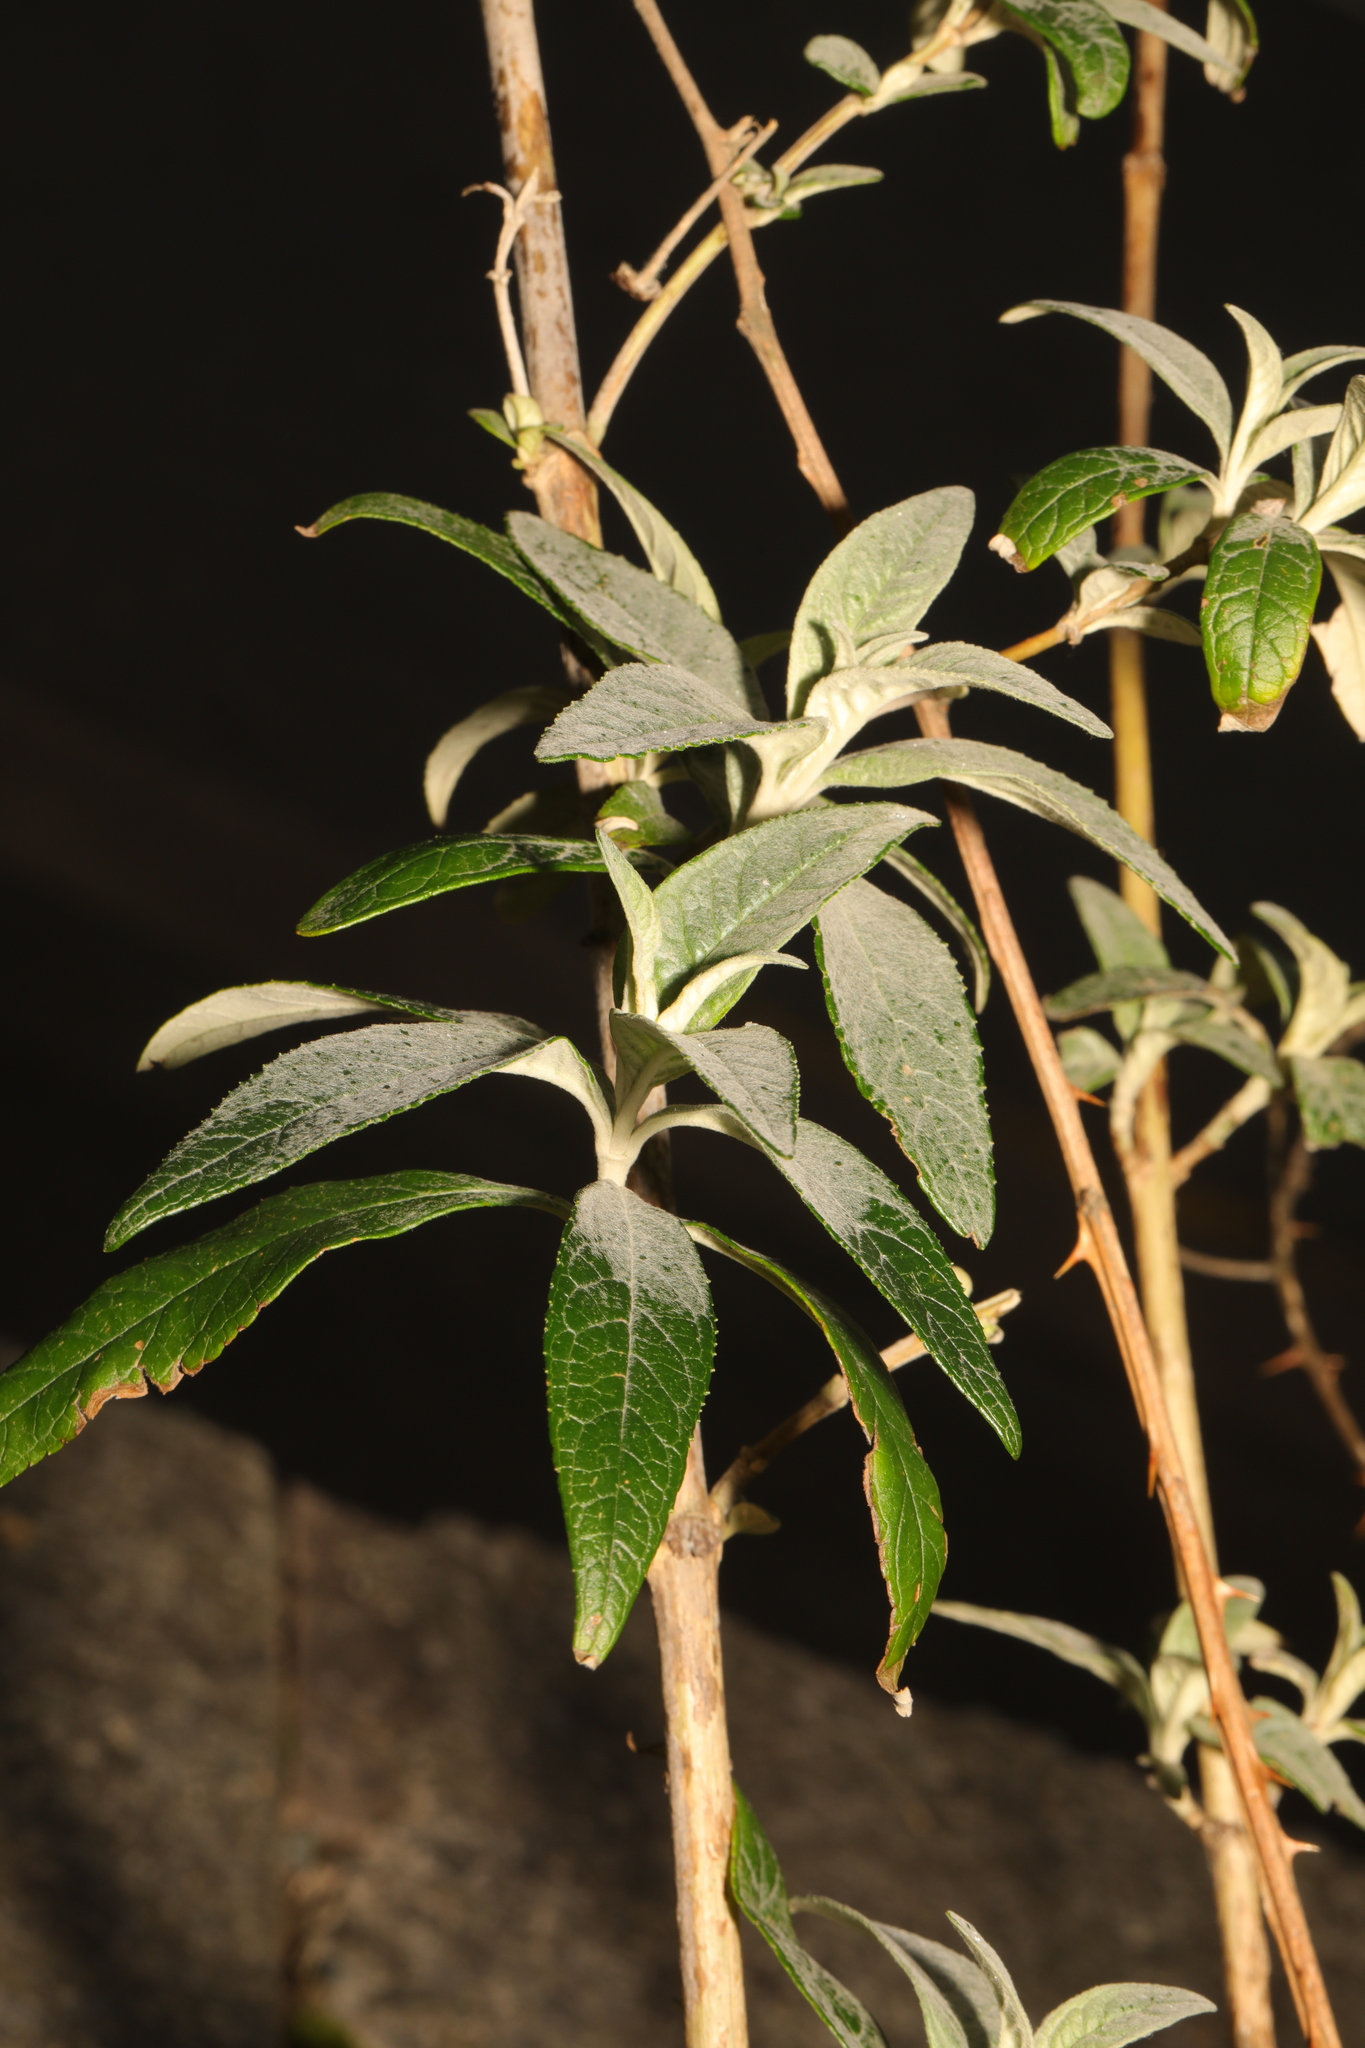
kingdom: Plantae
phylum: Tracheophyta
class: Magnoliopsida
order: Lamiales
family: Scrophulariaceae
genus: Buddleja
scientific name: Buddleja davidii
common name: Butterfly-bush
